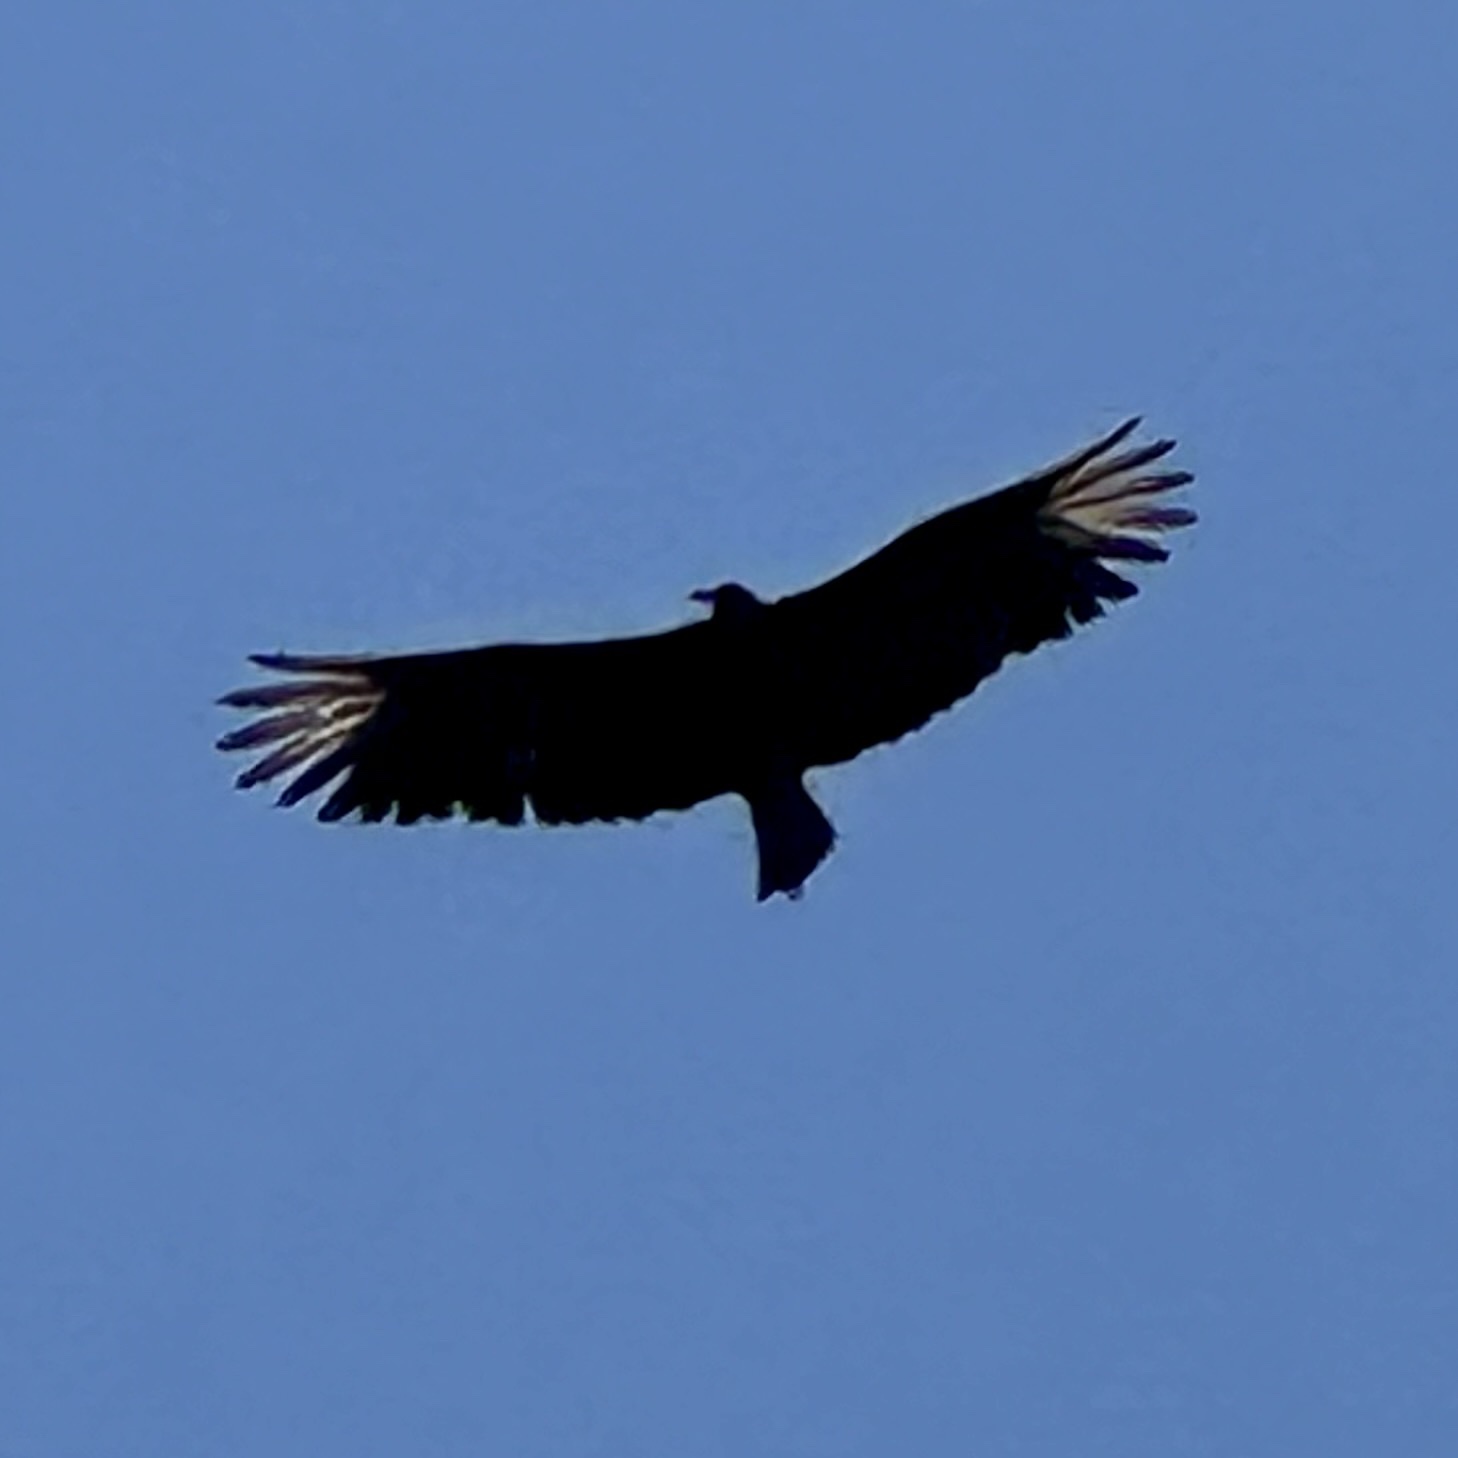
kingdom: Animalia
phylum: Chordata
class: Aves
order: Accipitriformes
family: Cathartidae
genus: Coragyps
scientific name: Coragyps atratus
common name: Black vulture
